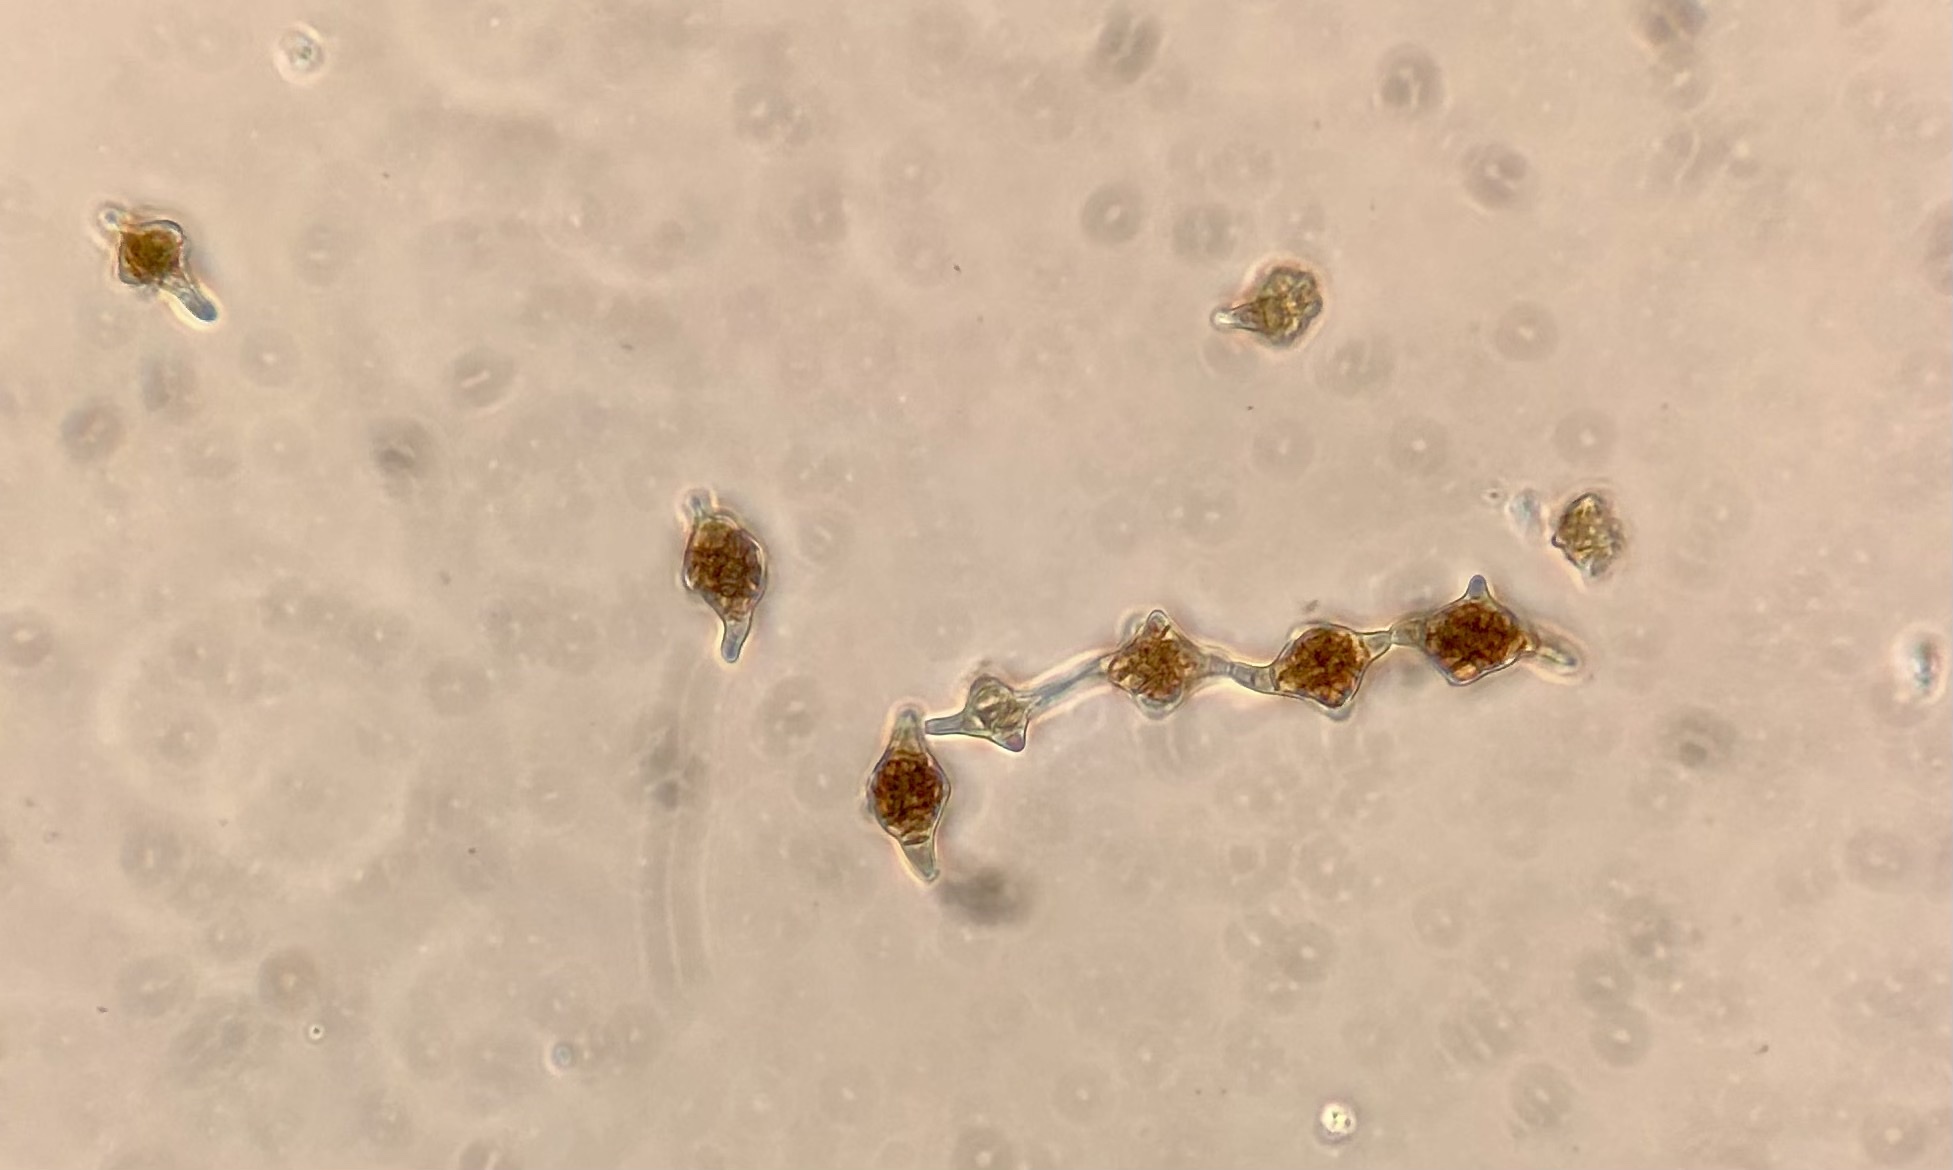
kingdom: Fungi
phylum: Ascomycota
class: Dothideomycetes
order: Pleosporales
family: Melanommataceae
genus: Phragmotrichum
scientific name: Phragmotrichum
